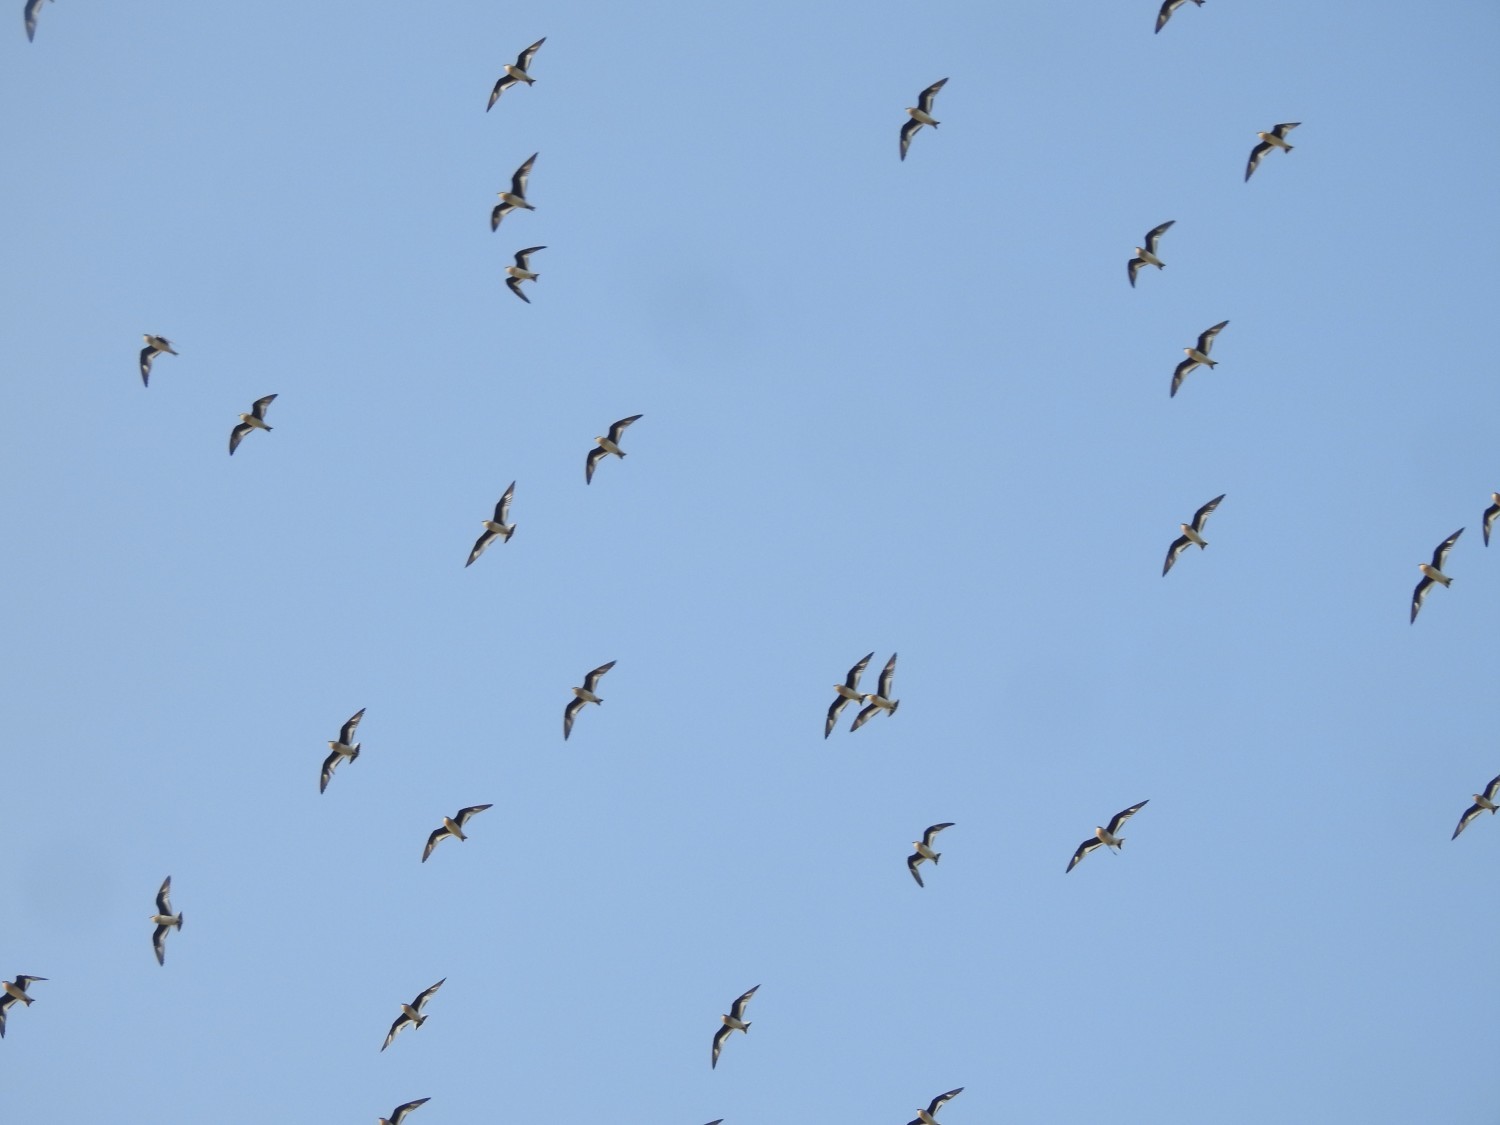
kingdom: Animalia
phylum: Chordata
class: Aves
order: Charadriiformes
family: Glareolidae
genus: Glareola
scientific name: Glareola lactea
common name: Small pratincole
